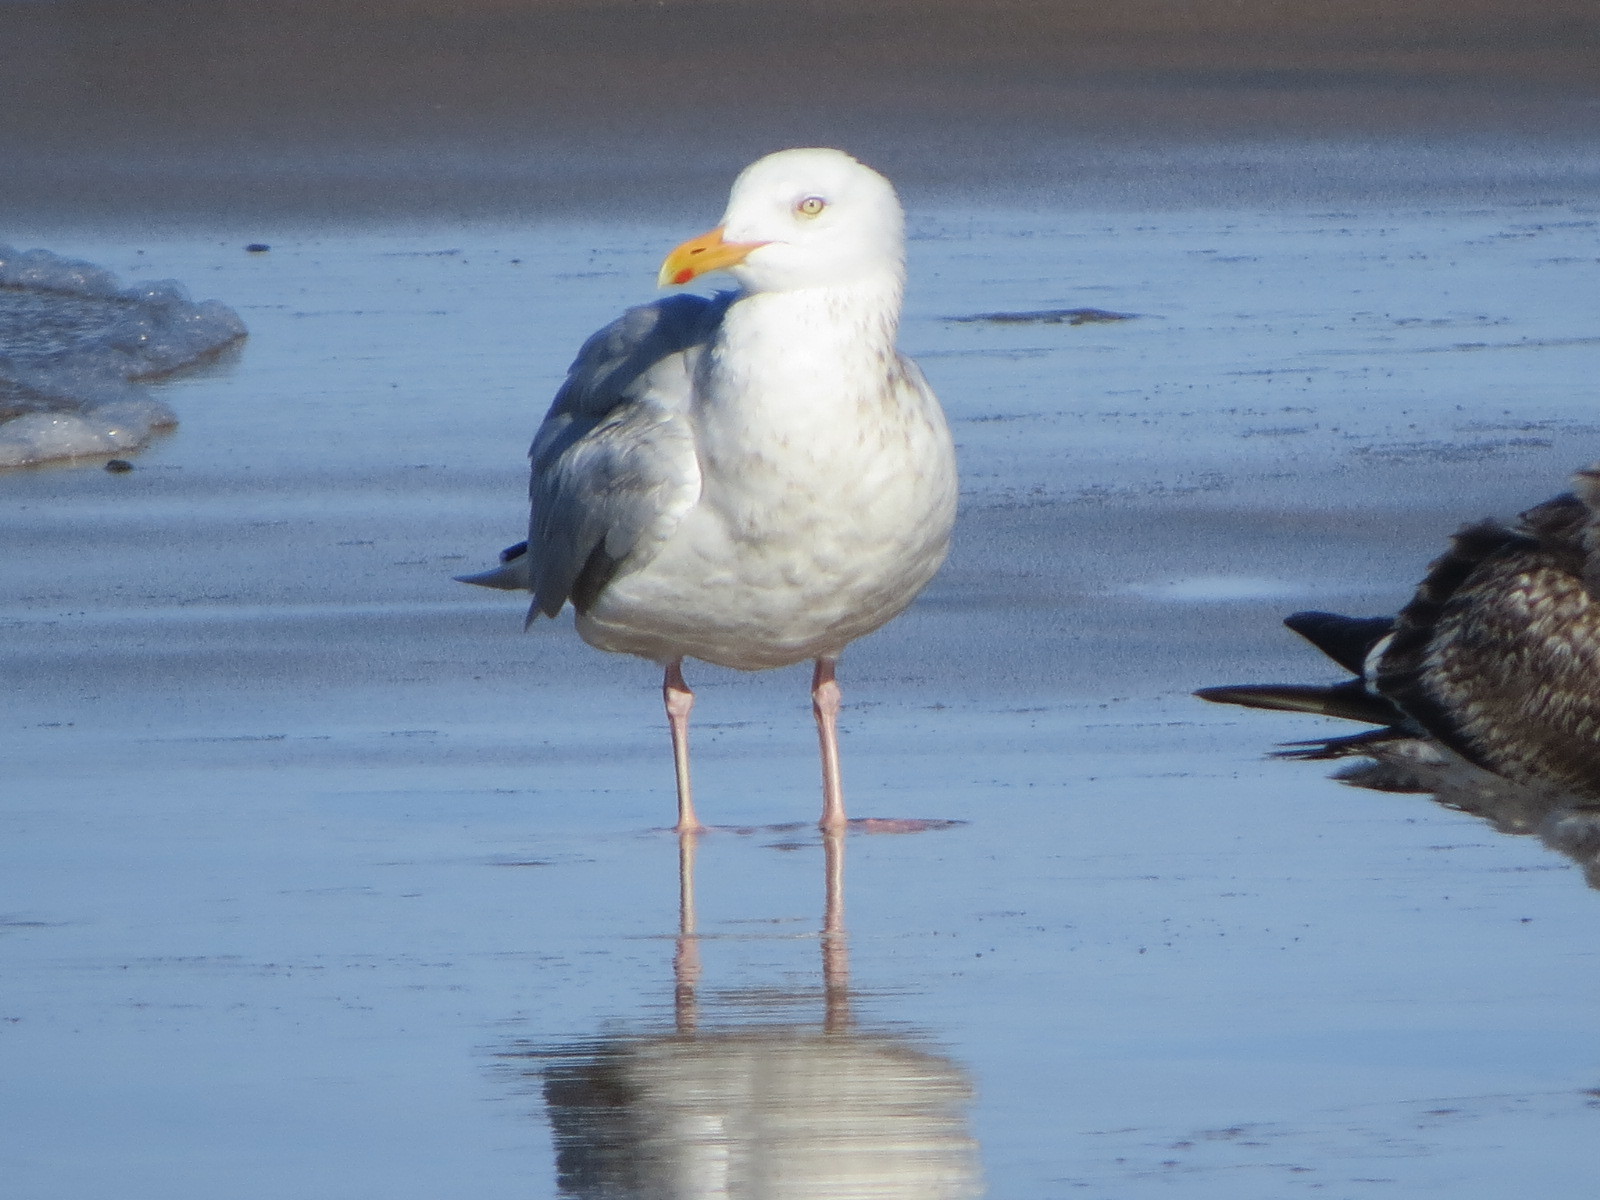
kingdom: Animalia
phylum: Chordata
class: Aves
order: Charadriiformes
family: Laridae
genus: Larus
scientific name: Larus argentatus
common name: Herring gull
